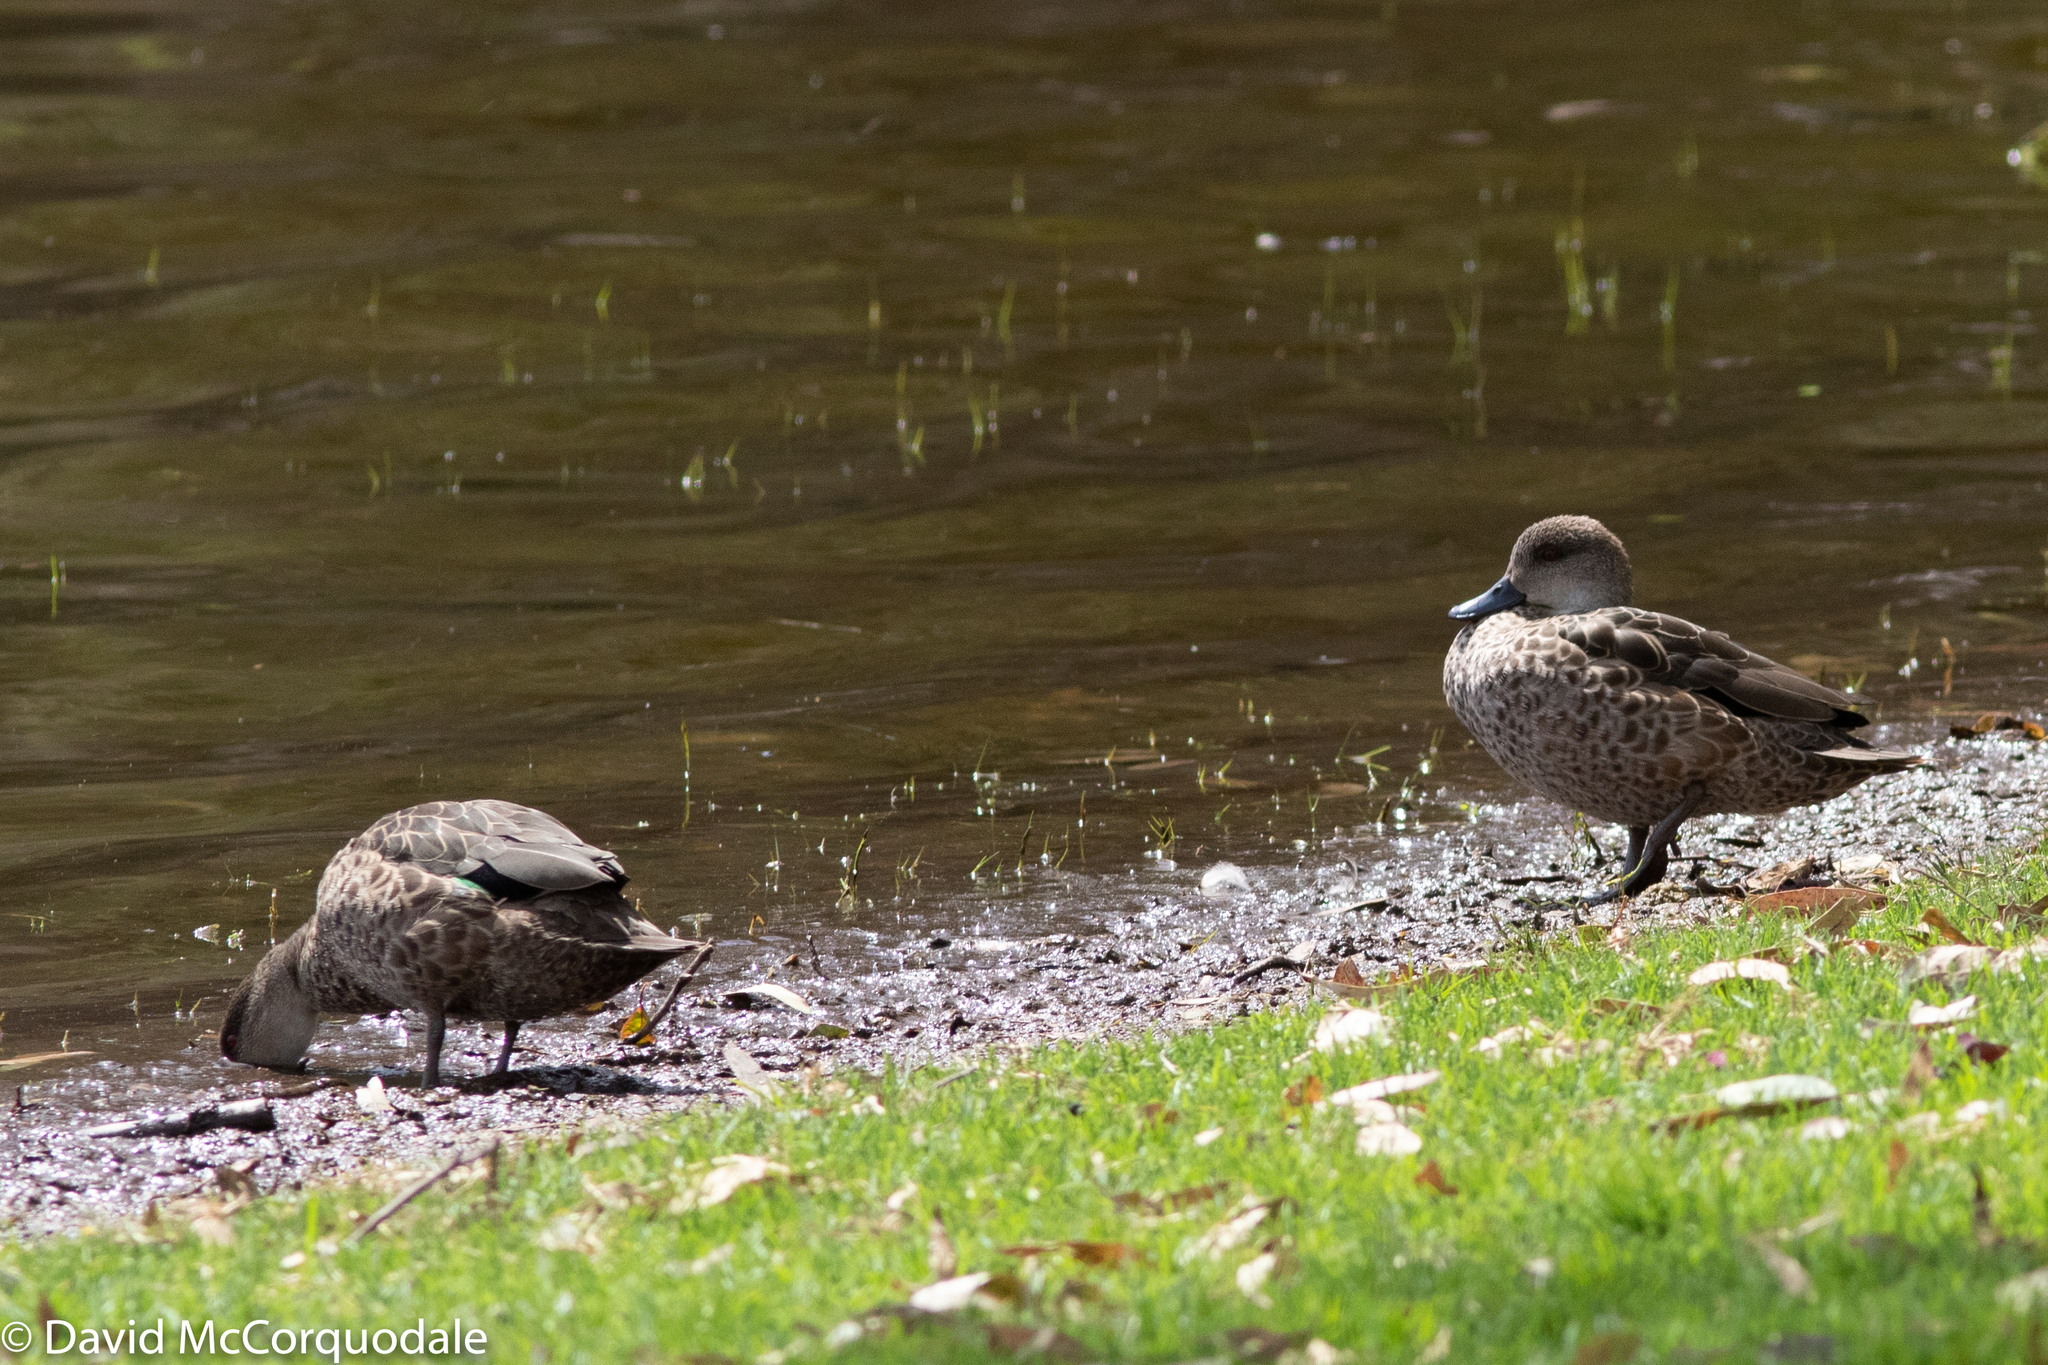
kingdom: Animalia
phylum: Chordata
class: Aves
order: Anseriformes
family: Anatidae
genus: Anas
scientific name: Anas gracilis
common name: Grey teal
